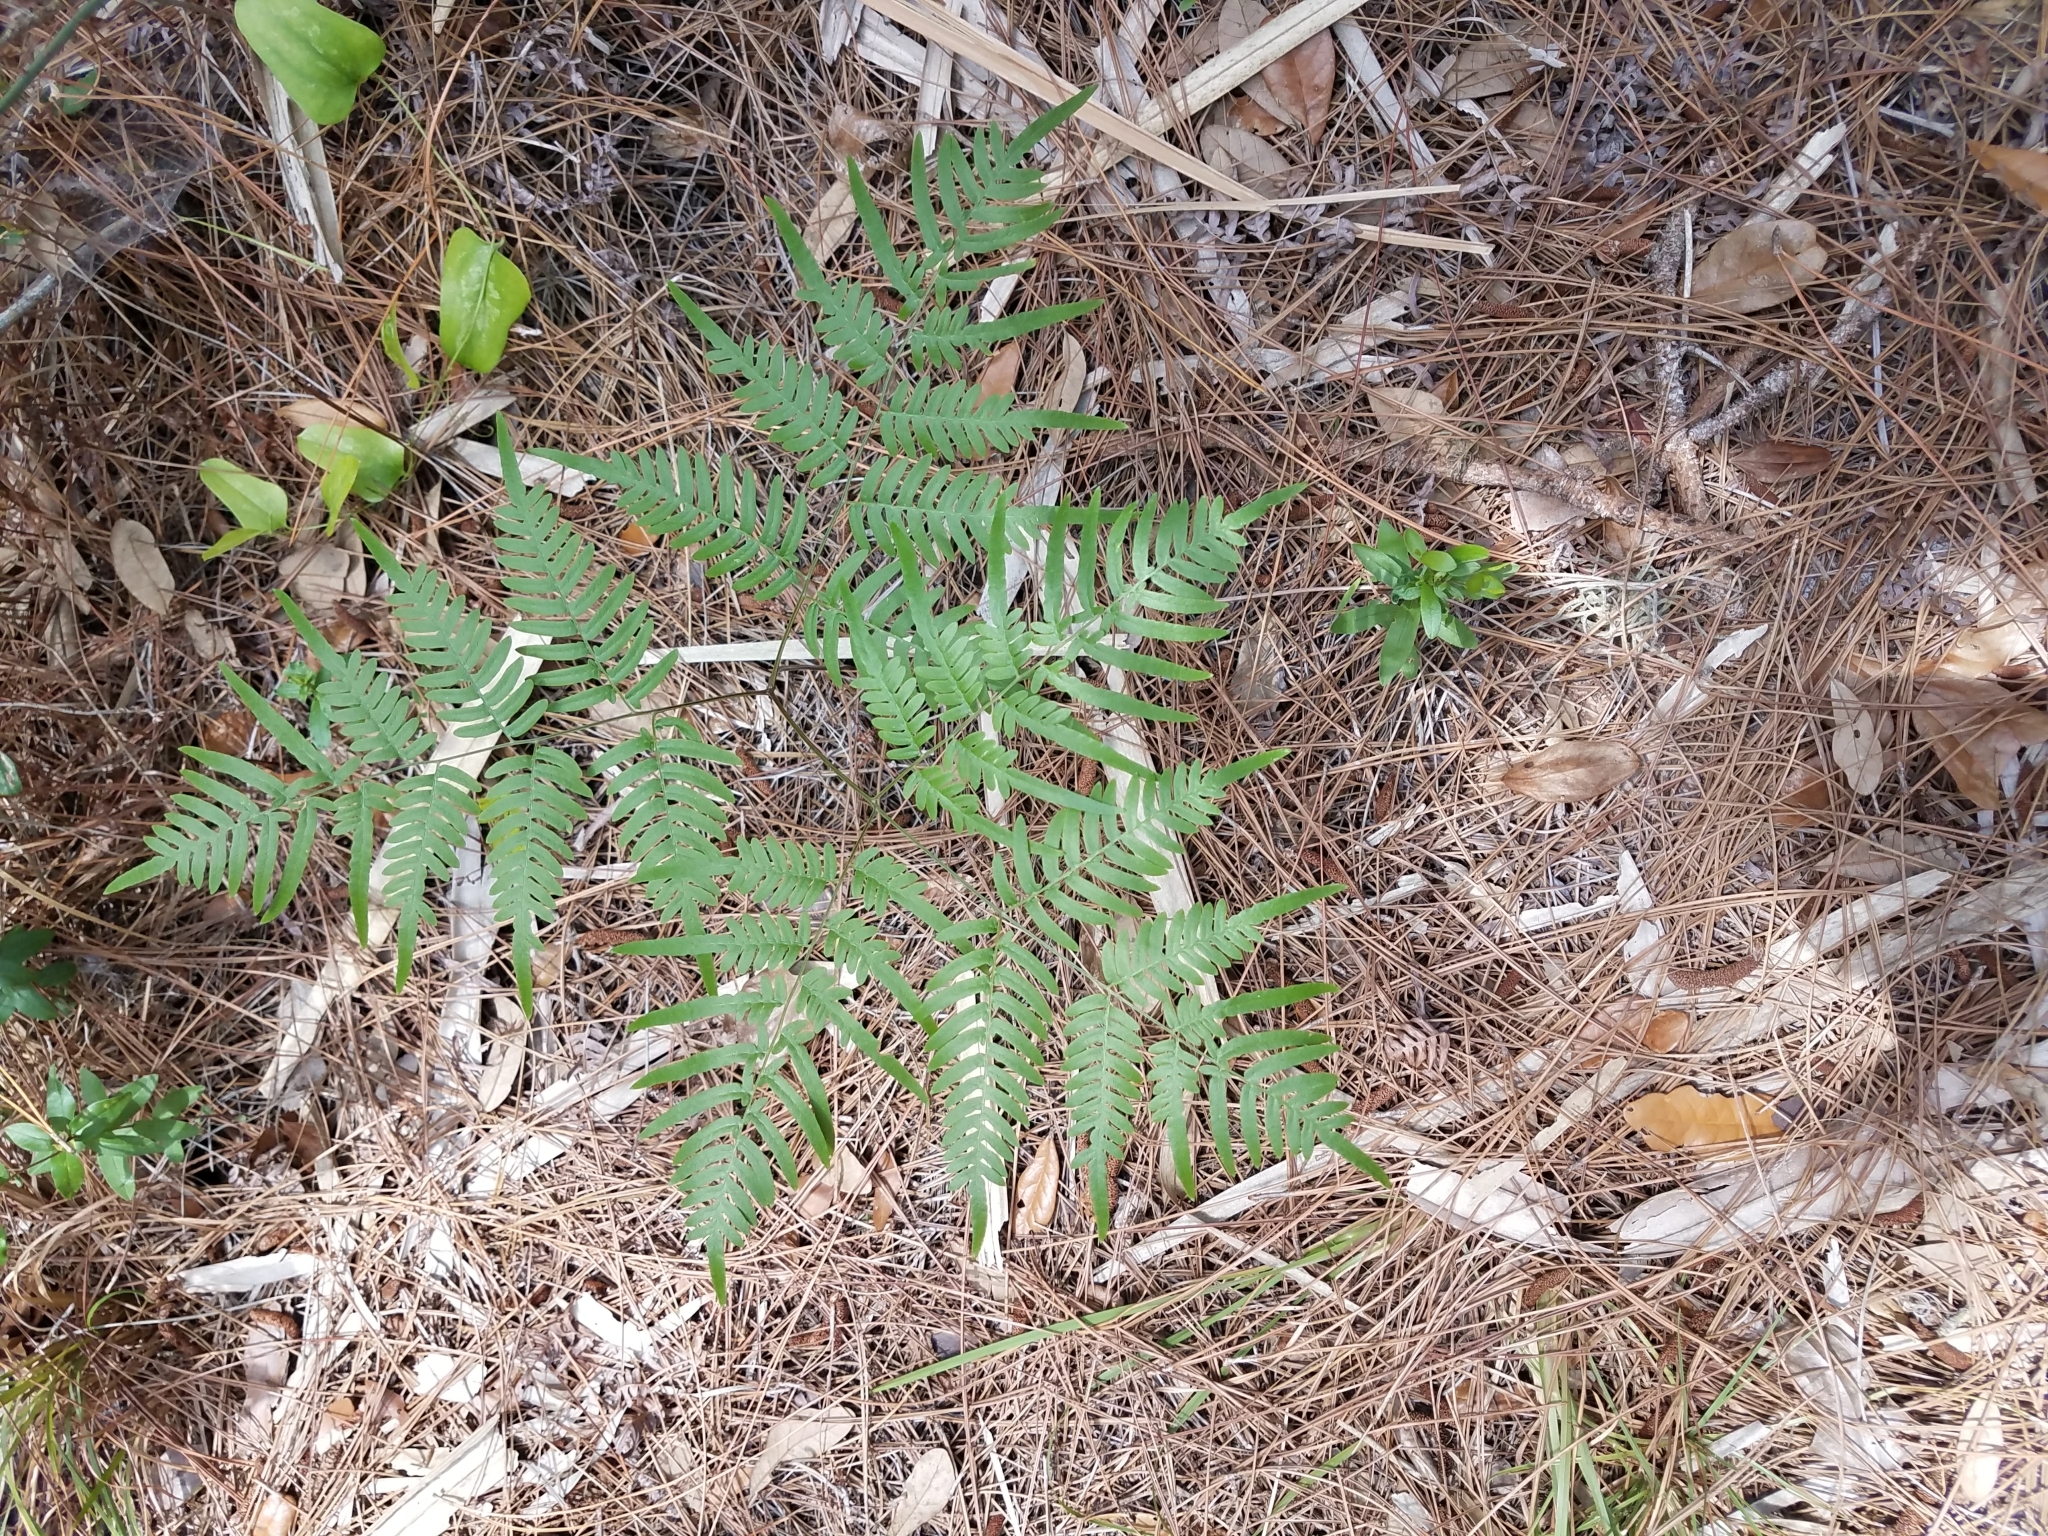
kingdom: Plantae
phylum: Tracheophyta
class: Polypodiopsida
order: Polypodiales
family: Dennstaedtiaceae
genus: Pteridium
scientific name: Pteridium aquilinum
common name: Bracken
